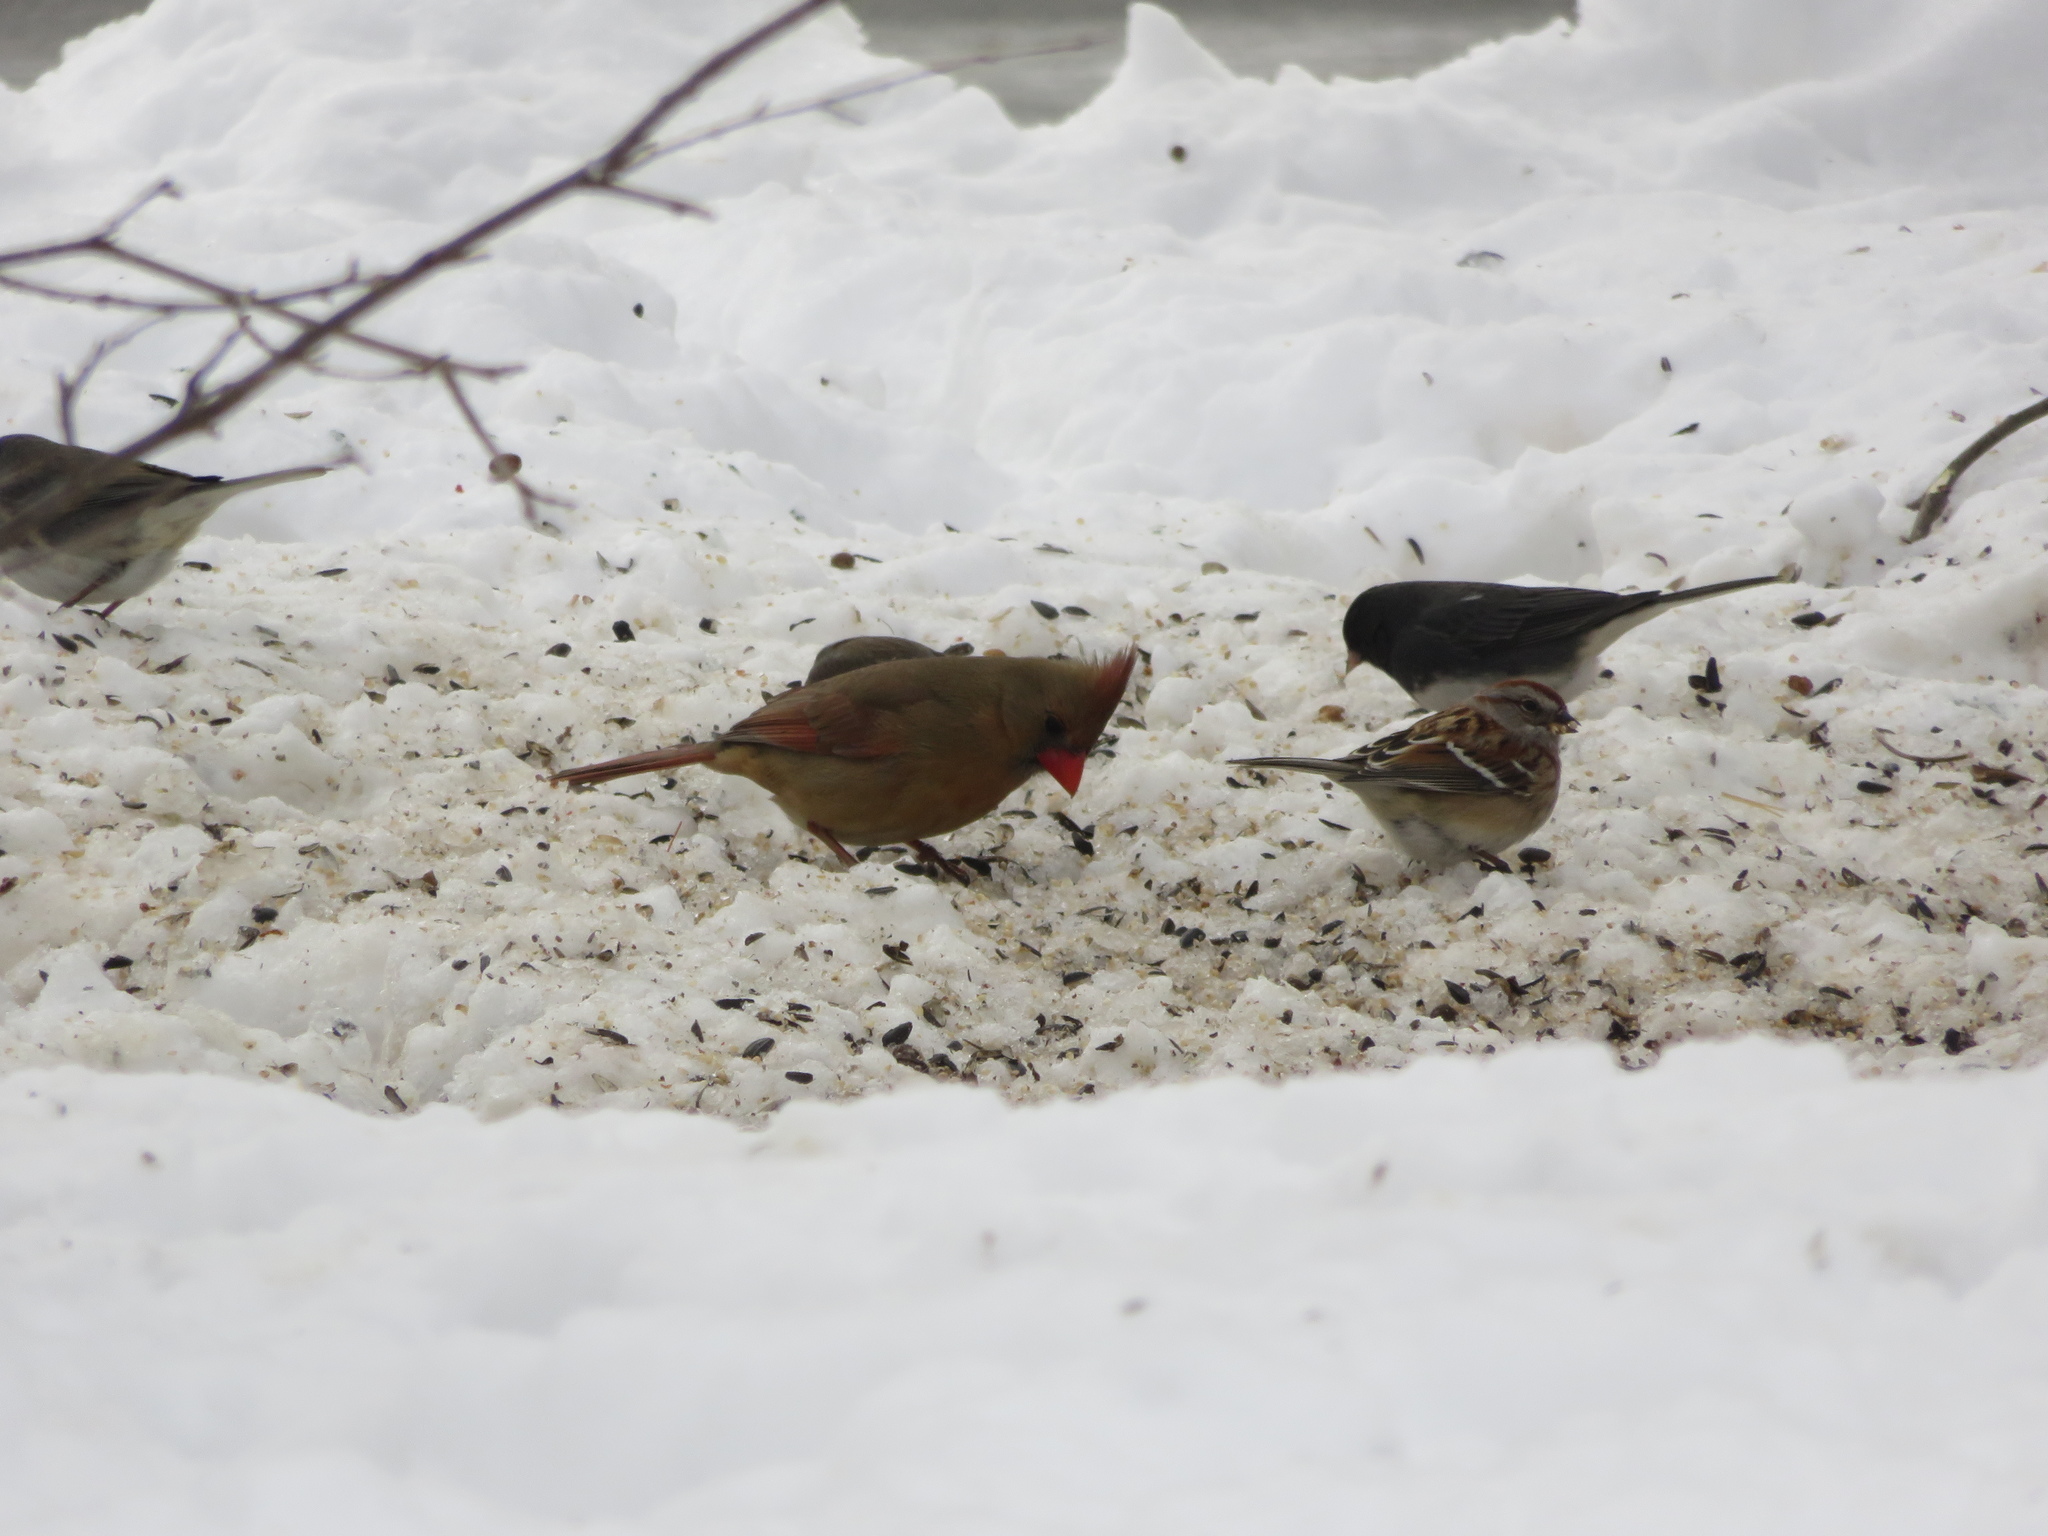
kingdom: Animalia
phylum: Chordata
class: Aves
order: Passeriformes
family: Cardinalidae
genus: Cardinalis
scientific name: Cardinalis cardinalis
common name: Northern cardinal
